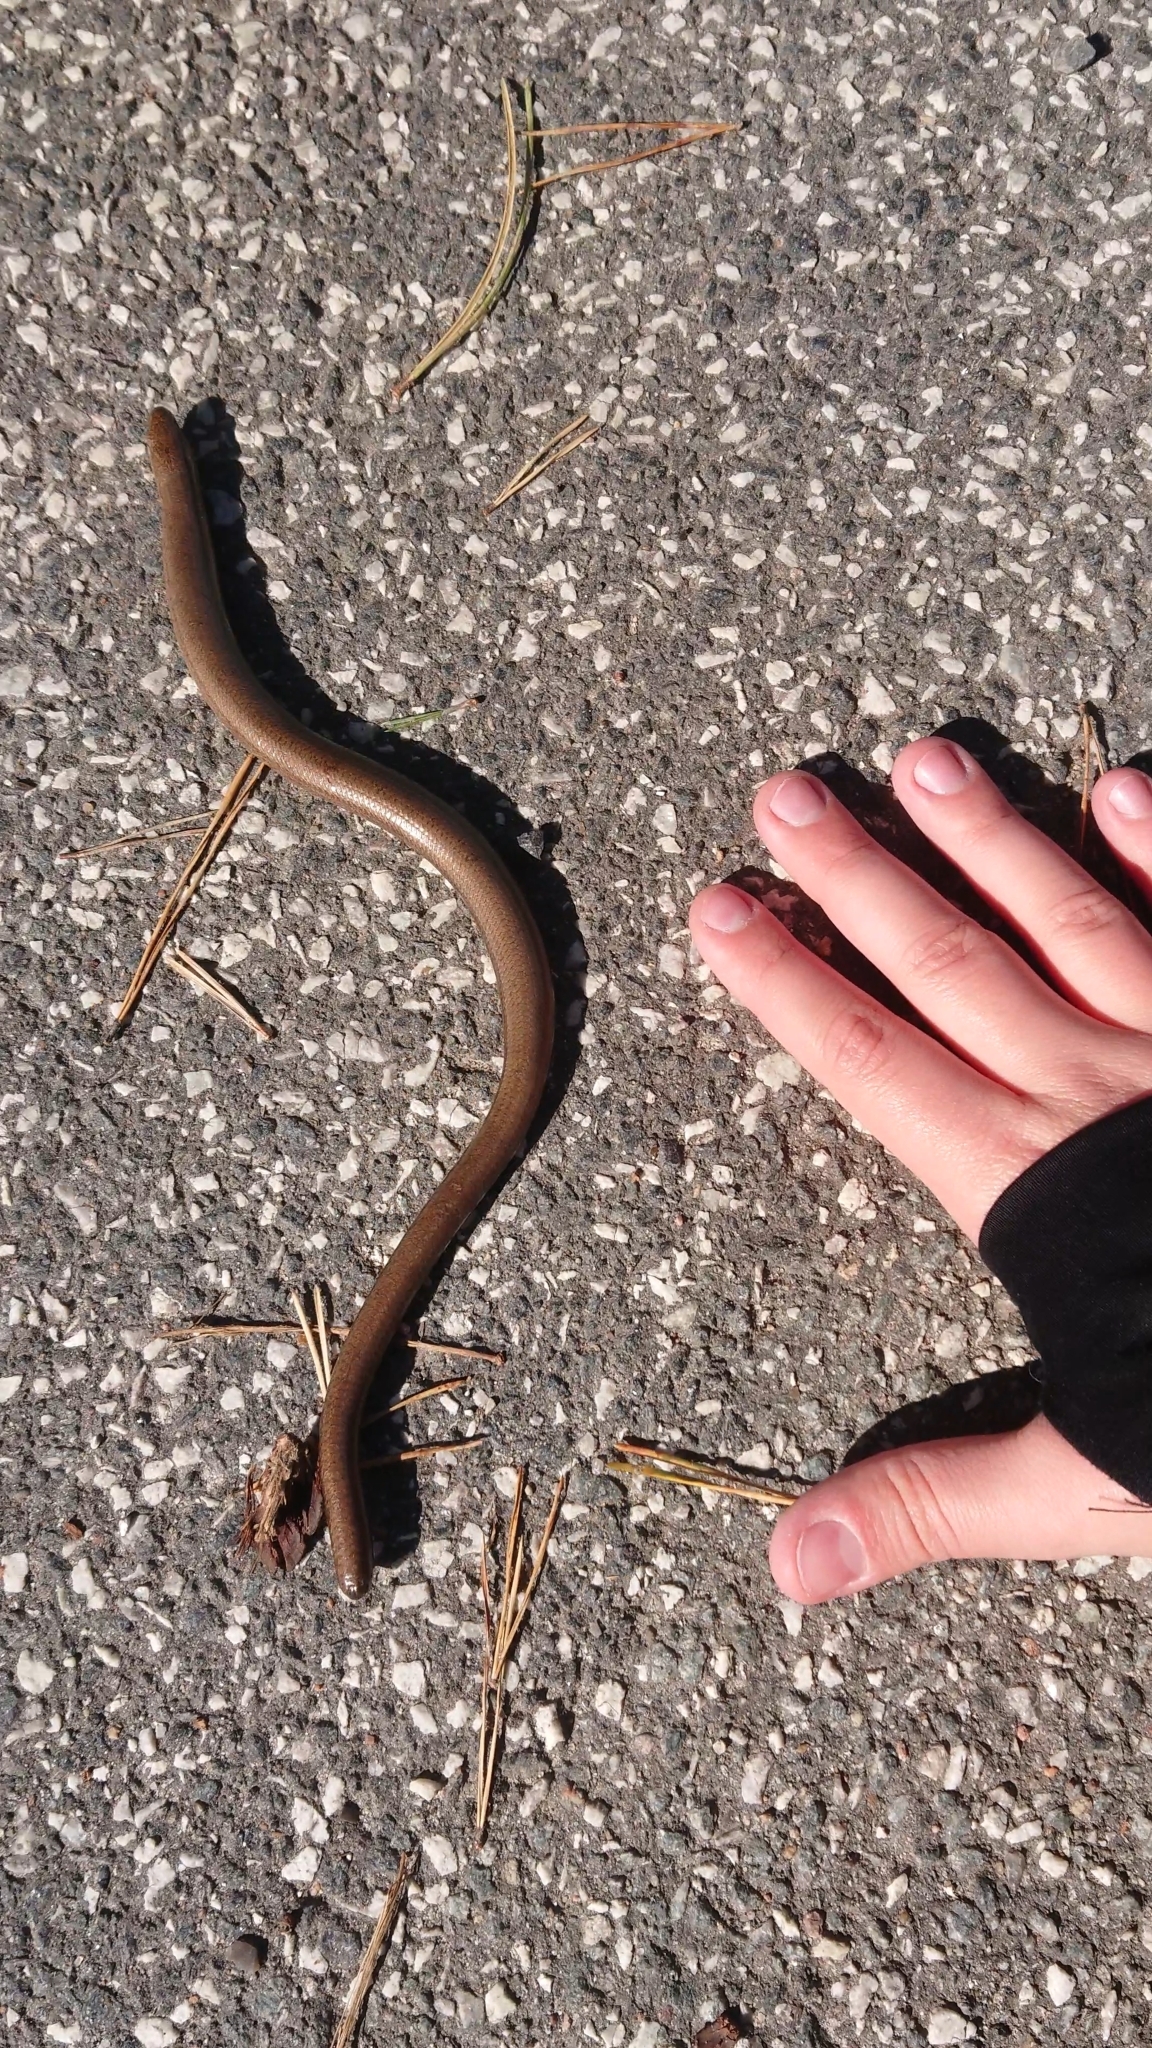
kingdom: Animalia
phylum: Chordata
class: Squamata
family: Anguidae
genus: Anguis
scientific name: Anguis fragilis
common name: Slow worm
